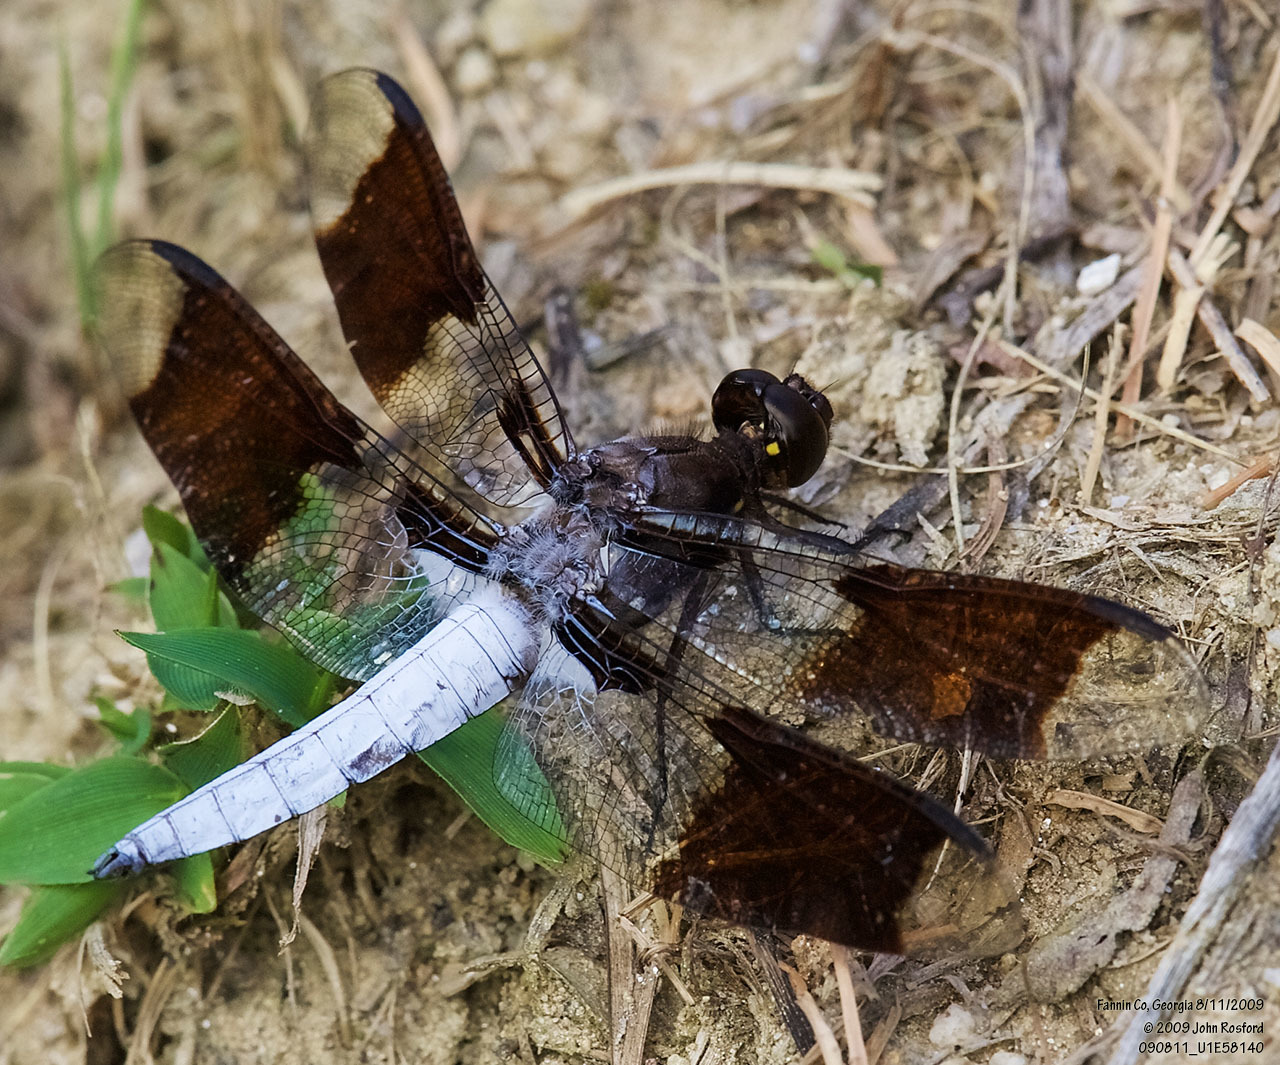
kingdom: Animalia
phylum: Arthropoda
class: Insecta
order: Odonata
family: Libellulidae
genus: Plathemis
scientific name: Plathemis lydia
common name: Common whitetail
